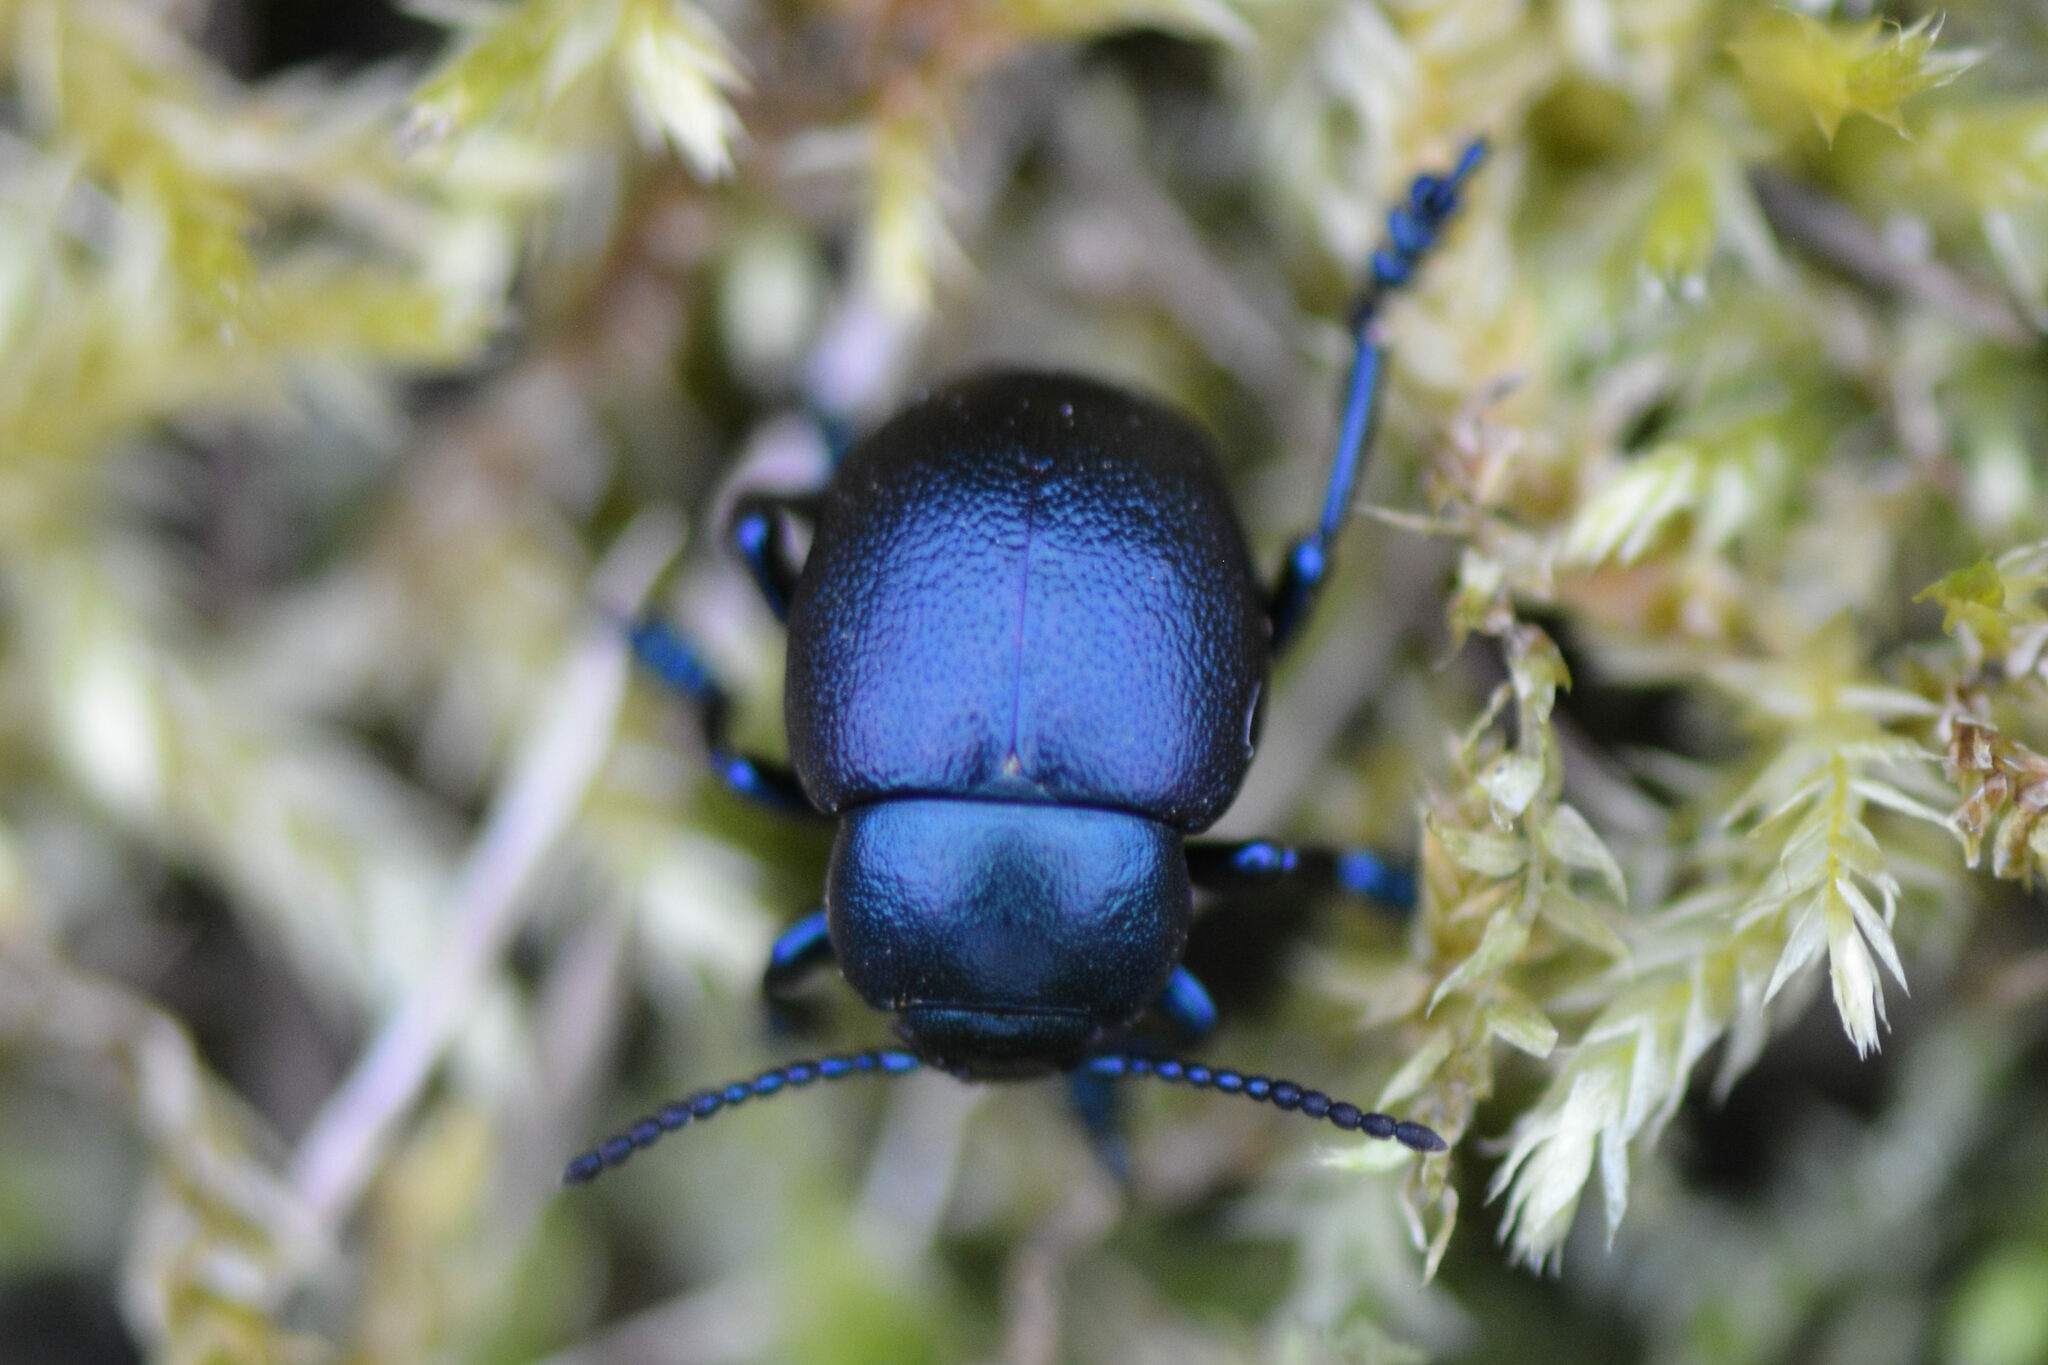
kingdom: Animalia
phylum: Arthropoda
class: Insecta
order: Coleoptera
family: Chrysomelidae
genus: Timarcha
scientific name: Timarcha goettingensis
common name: Small bloody-nosed beetle
